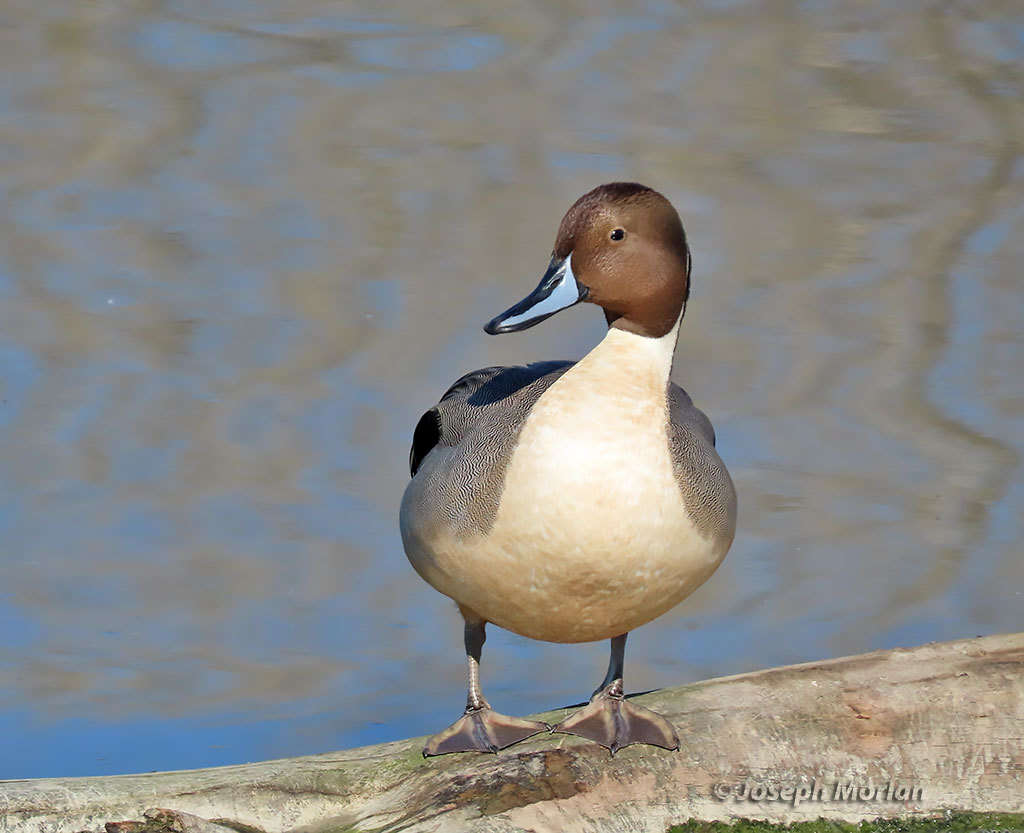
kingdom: Animalia
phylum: Chordata
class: Aves
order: Anseriformes
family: Anatidae
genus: Anas
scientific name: Anas acuta
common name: Northern pintail
